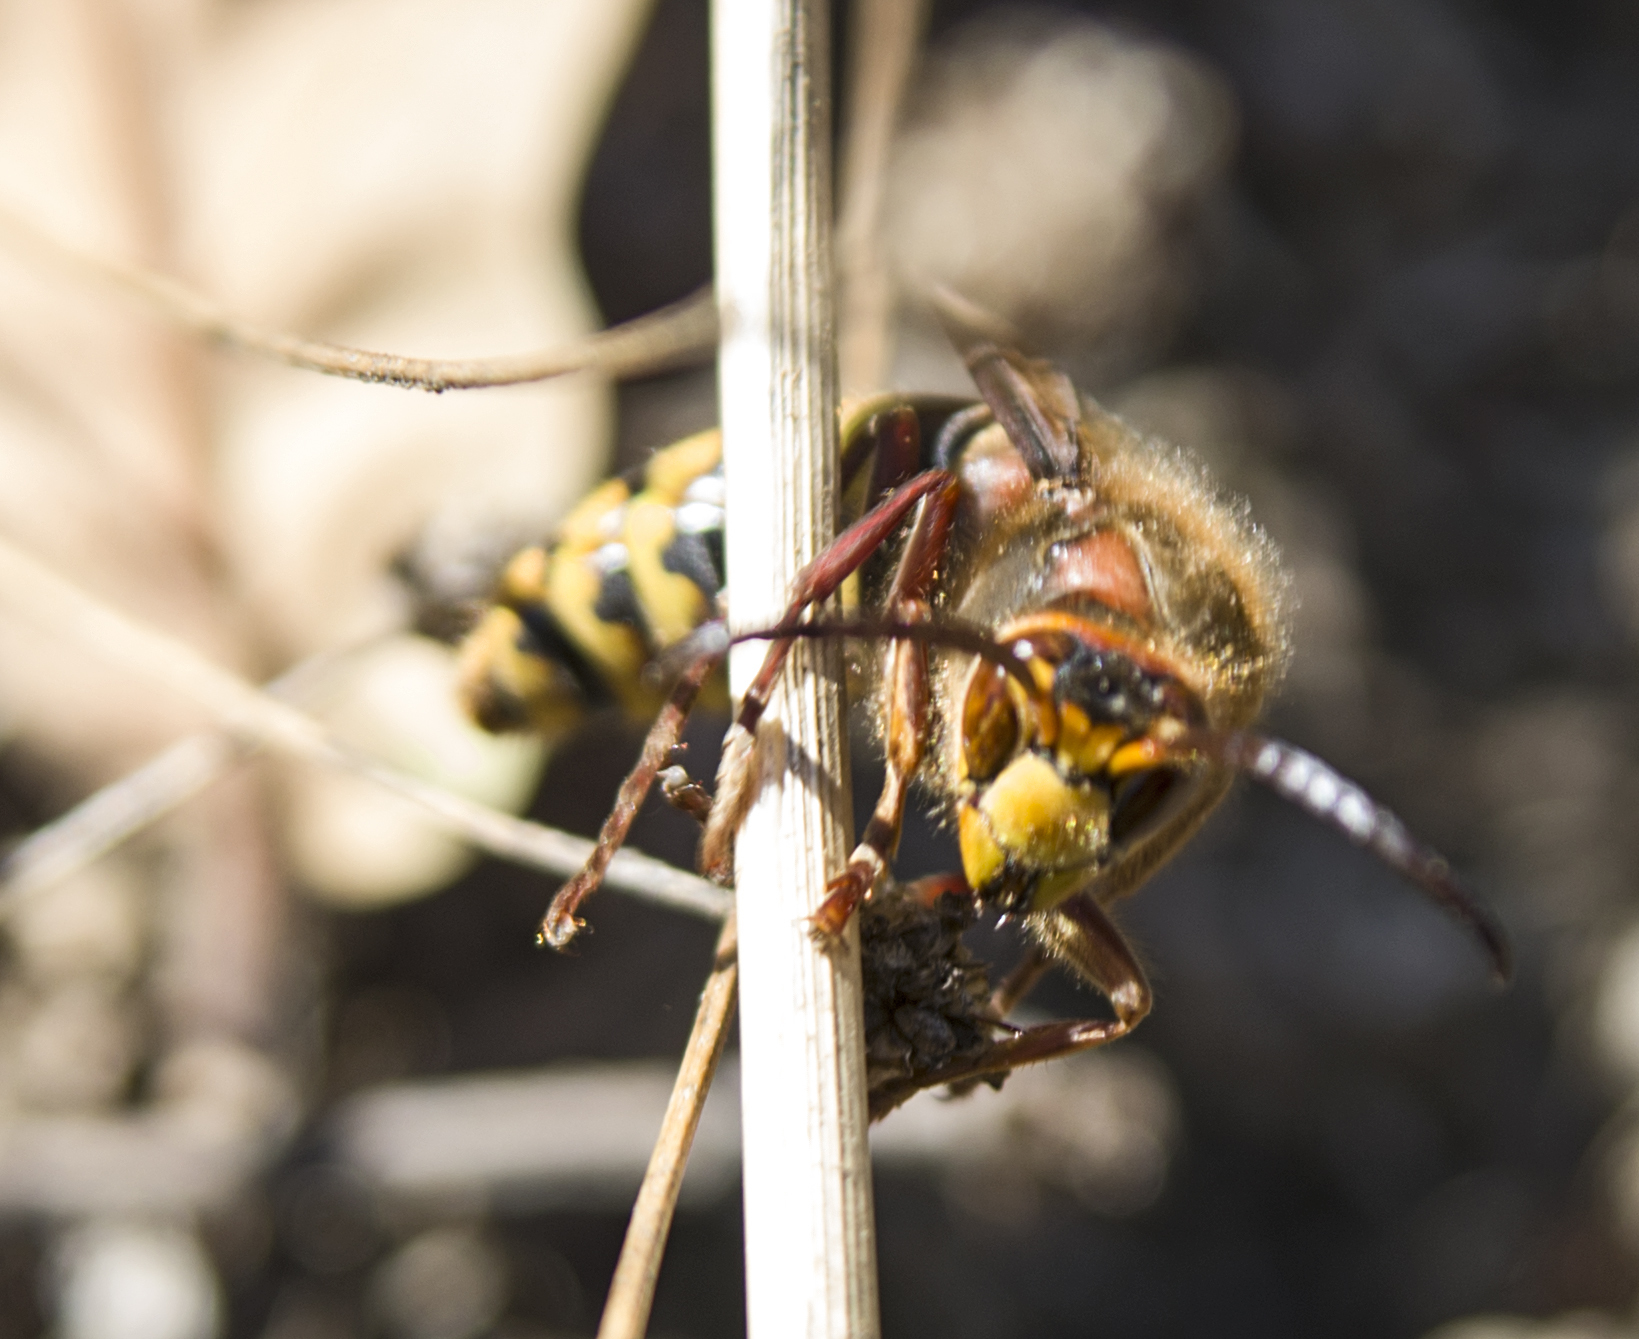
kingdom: Animalia
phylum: Arthropoda
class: Insecta
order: Hymenoptera
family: Vespidae
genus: Vespa
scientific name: Vespa crabro
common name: Hornet
